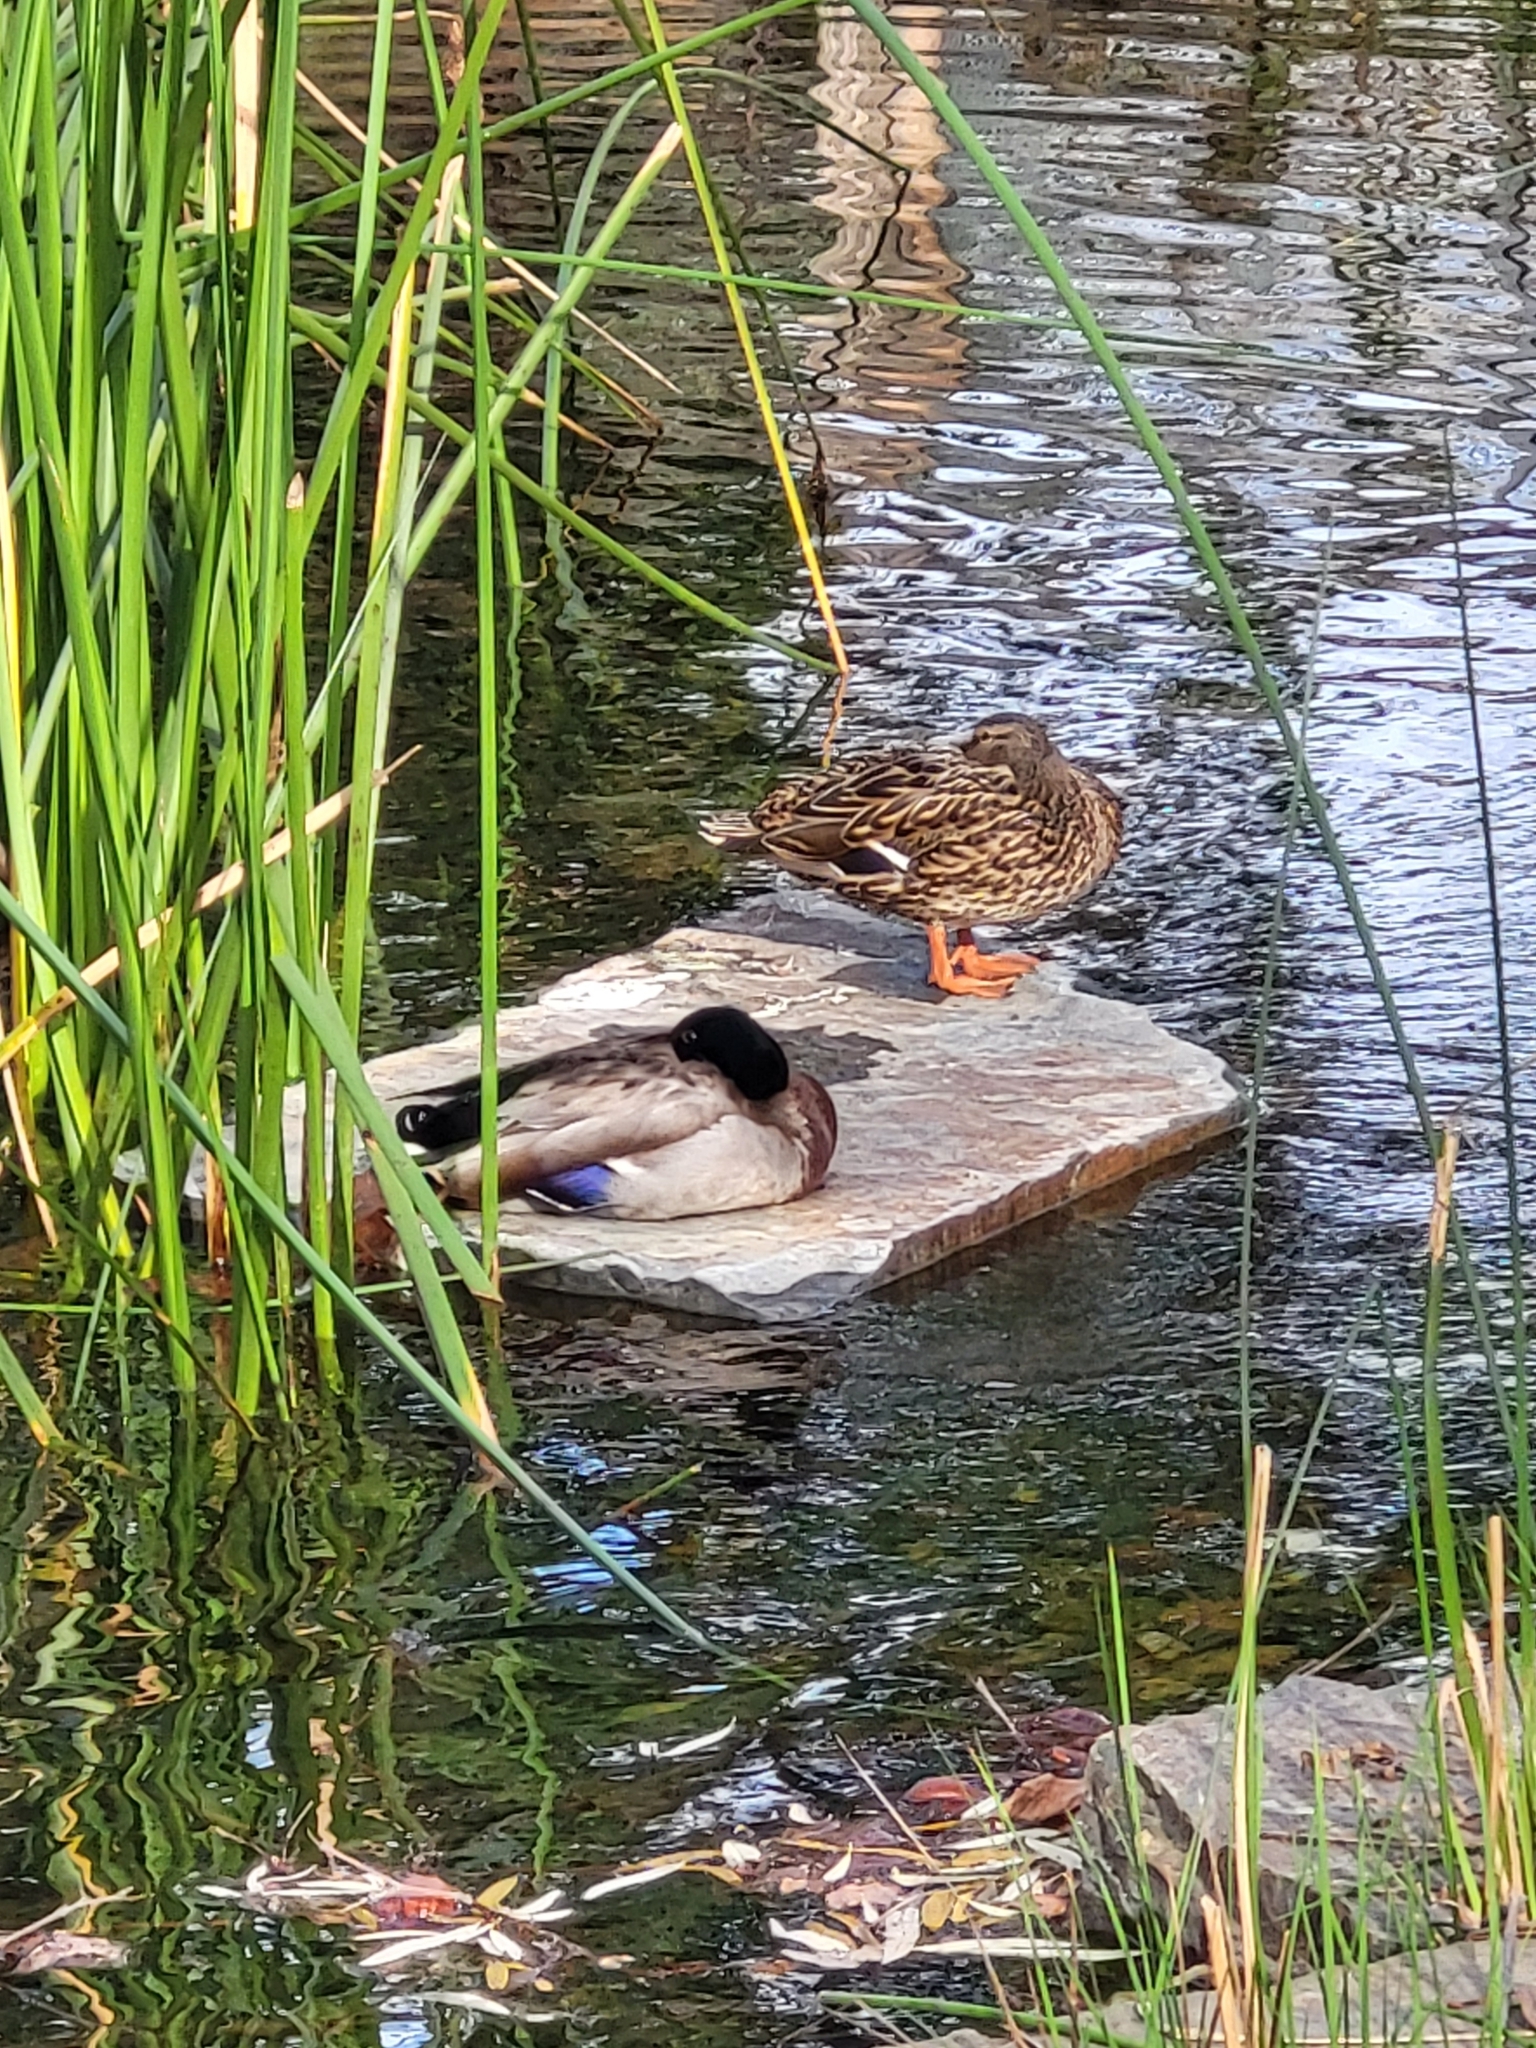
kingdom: Animalia
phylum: Chordata
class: Aves
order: Anseriformes
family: Anatidae
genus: Anas
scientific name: Anas platyrhynchos
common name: Mallard
